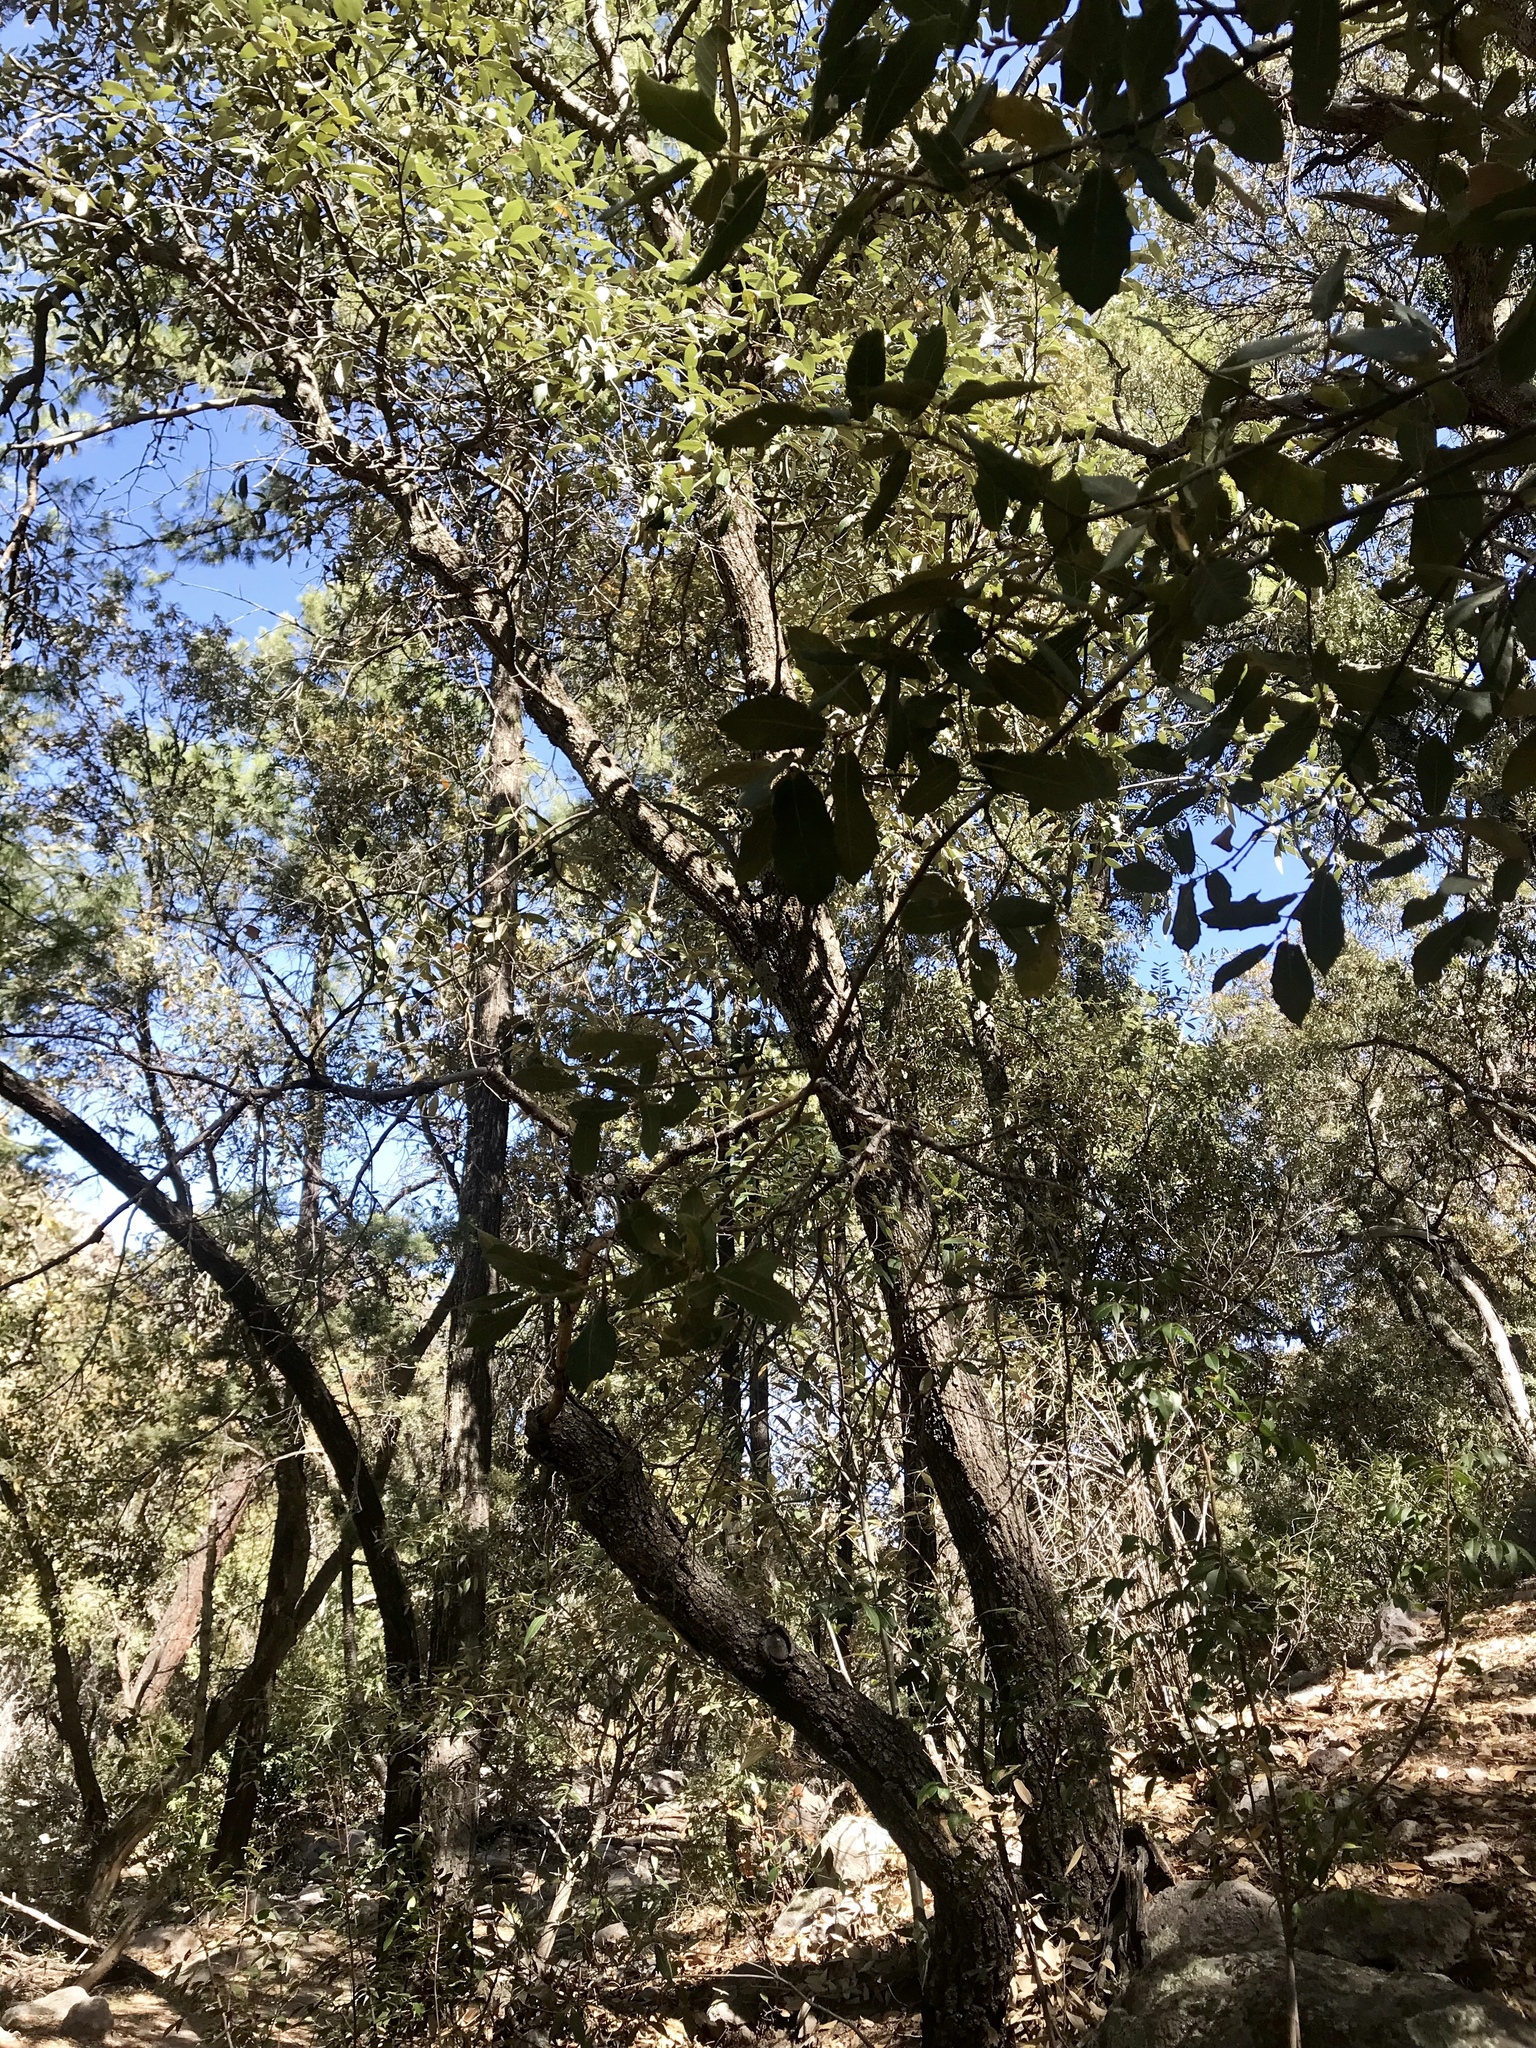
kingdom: Plantae
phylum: Tracheophyta
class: Magnoliopsida
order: Fagales
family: Fagaceae
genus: Quercus
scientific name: Quercus arizonica
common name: Arizona white oak
